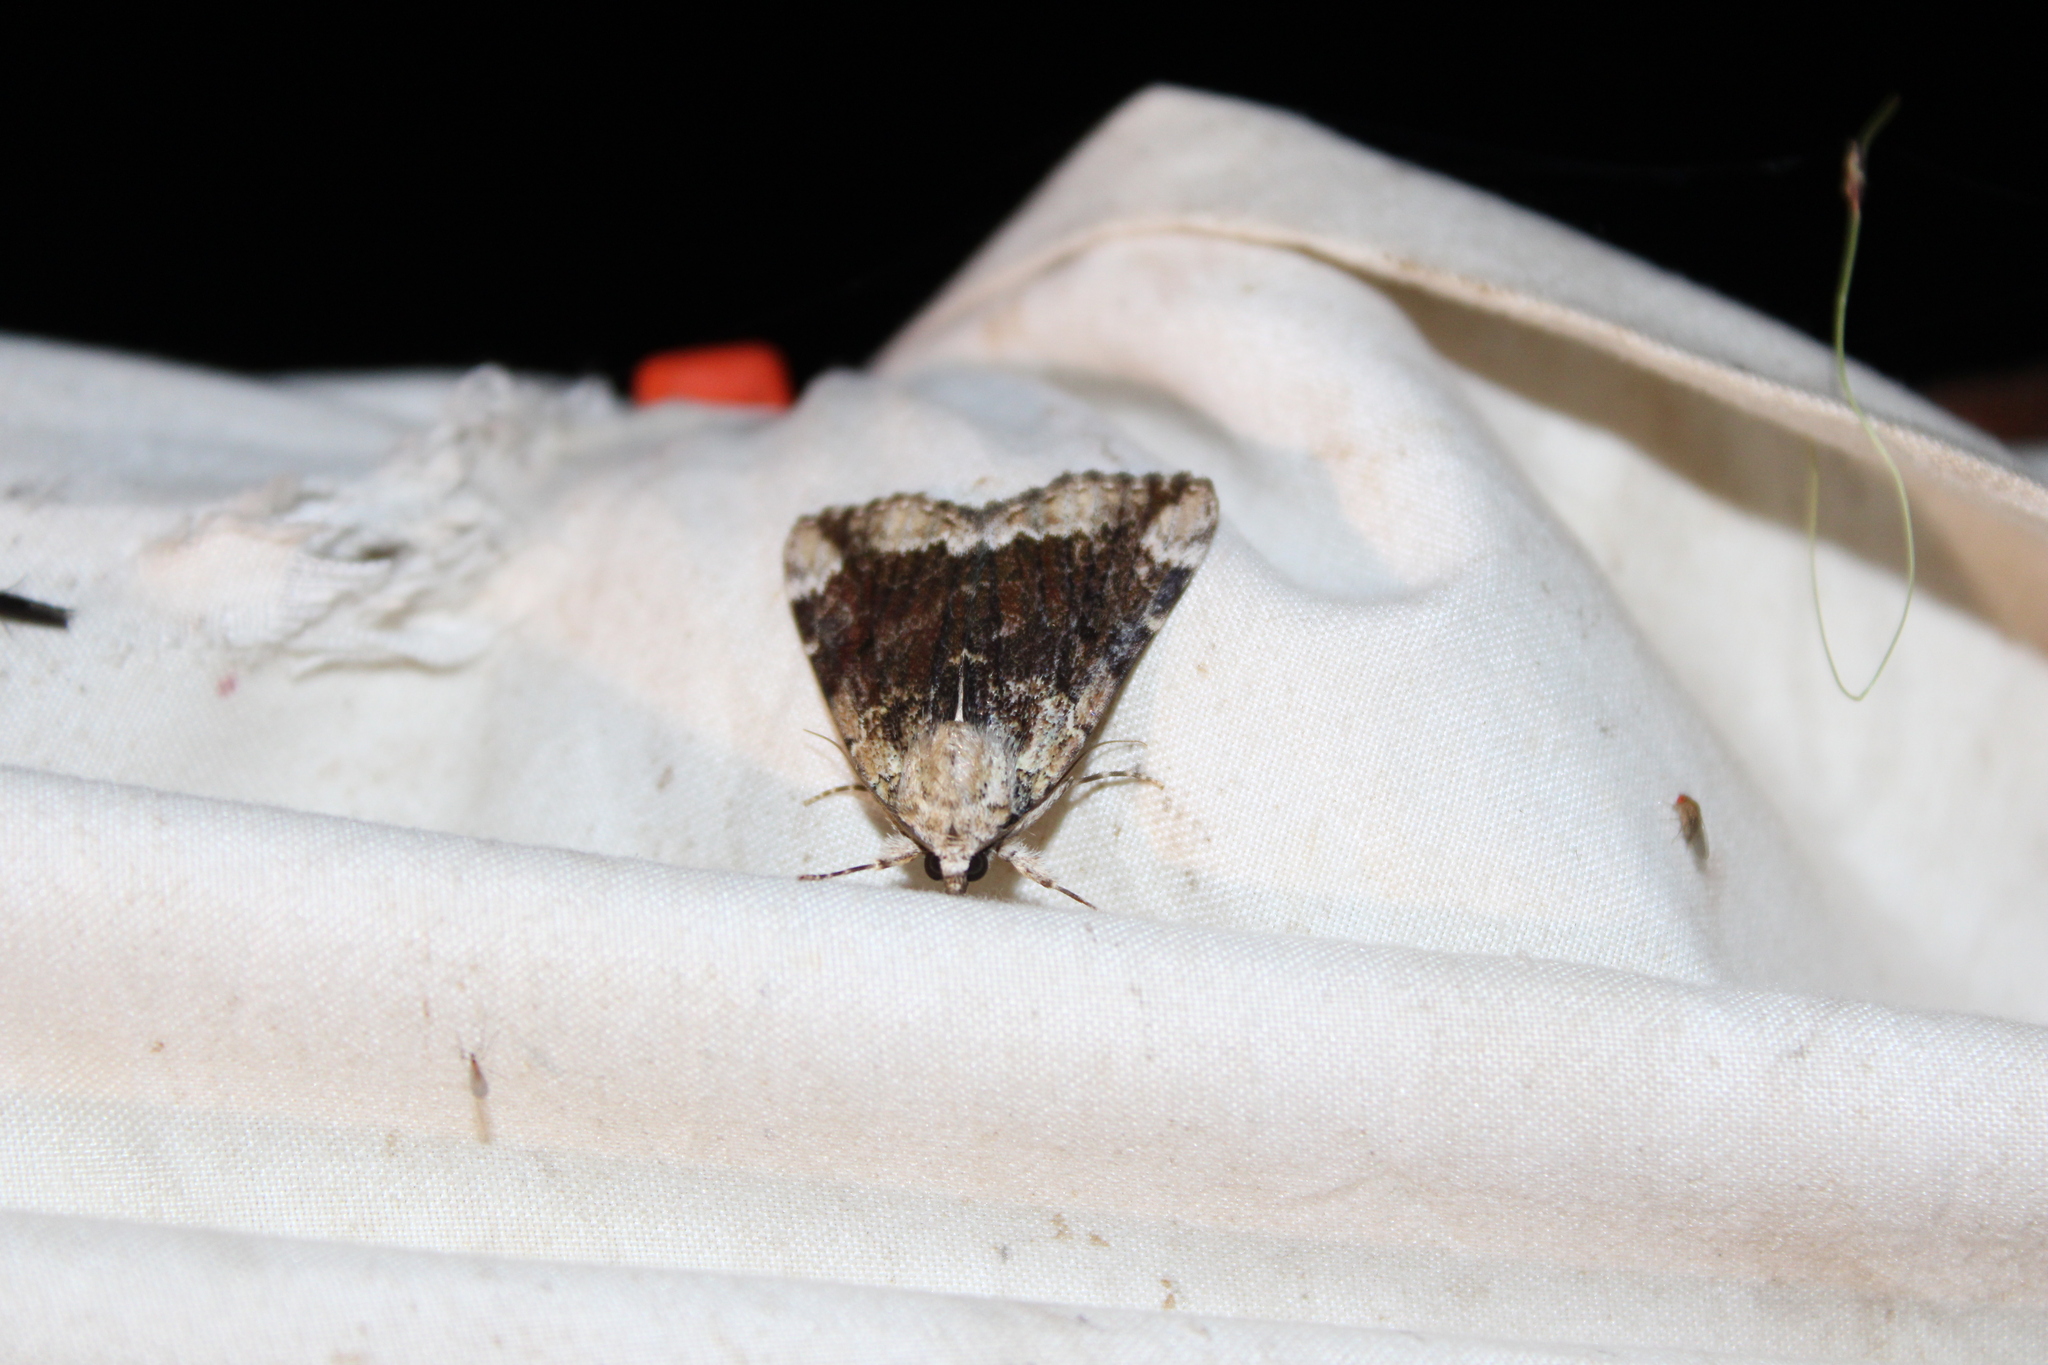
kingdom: Animalia
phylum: Arthropoda
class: Insecta
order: Lepidoptera
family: Erebidae
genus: Catocala
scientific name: Catocala micronympha
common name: Little nymph underwing
